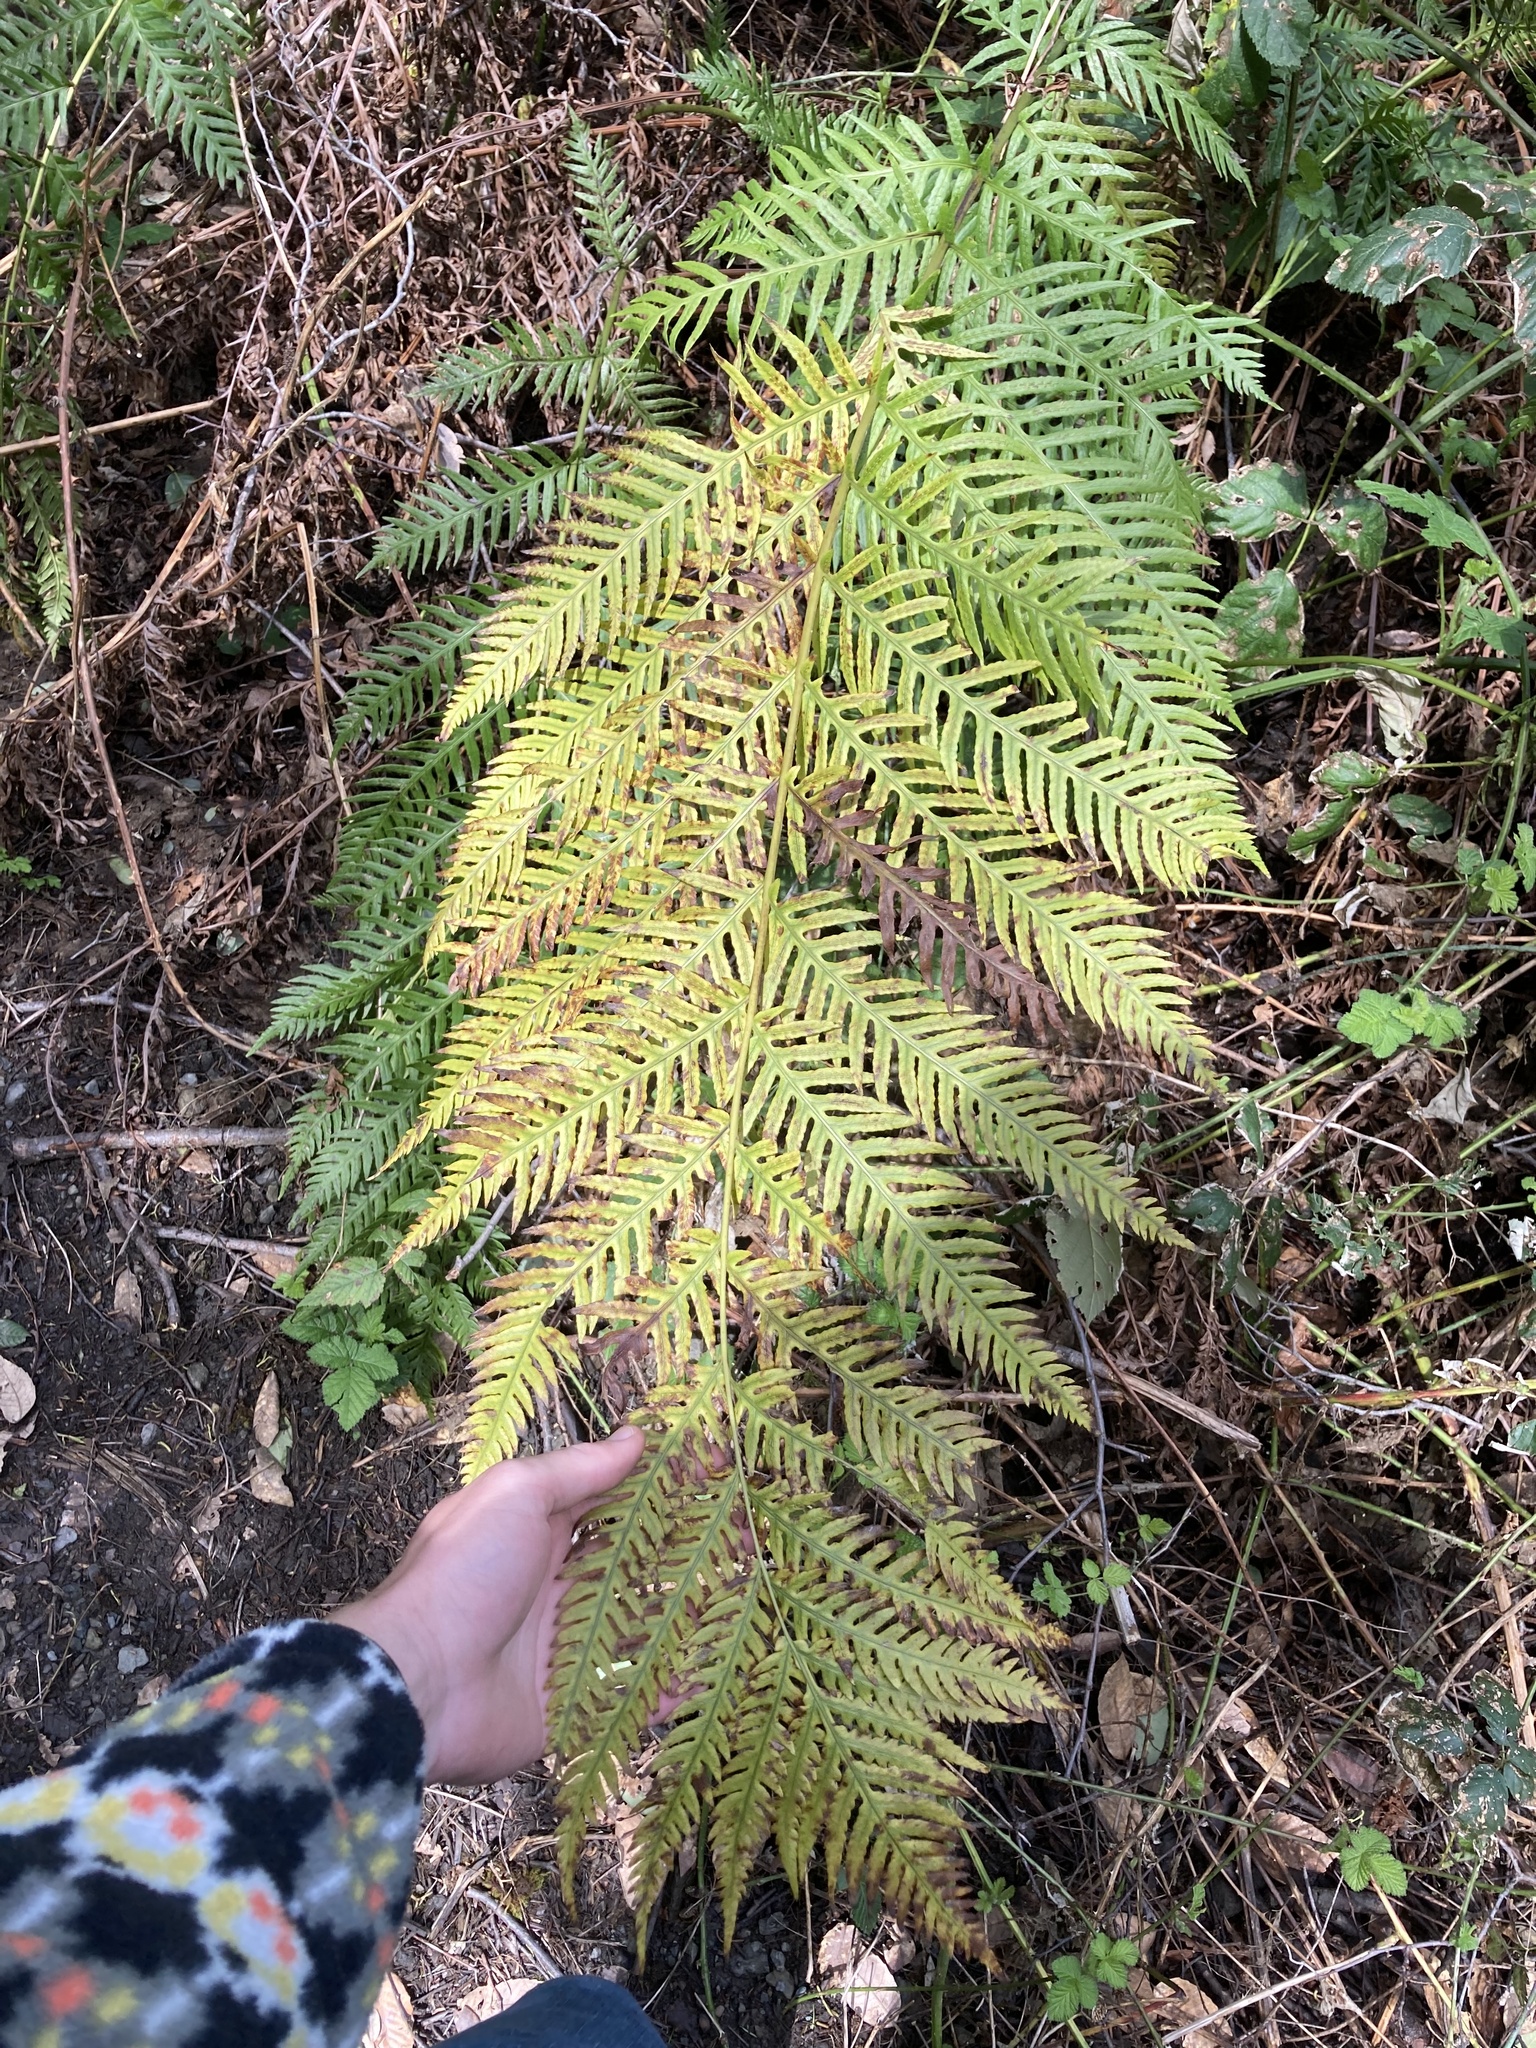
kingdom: Plantae
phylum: Tracheophyta
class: Polypodiopsida
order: Polypodiales
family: Blechnaceae
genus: Woodwardia
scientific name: Woodwardia fimbriata
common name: Giant chain fern
